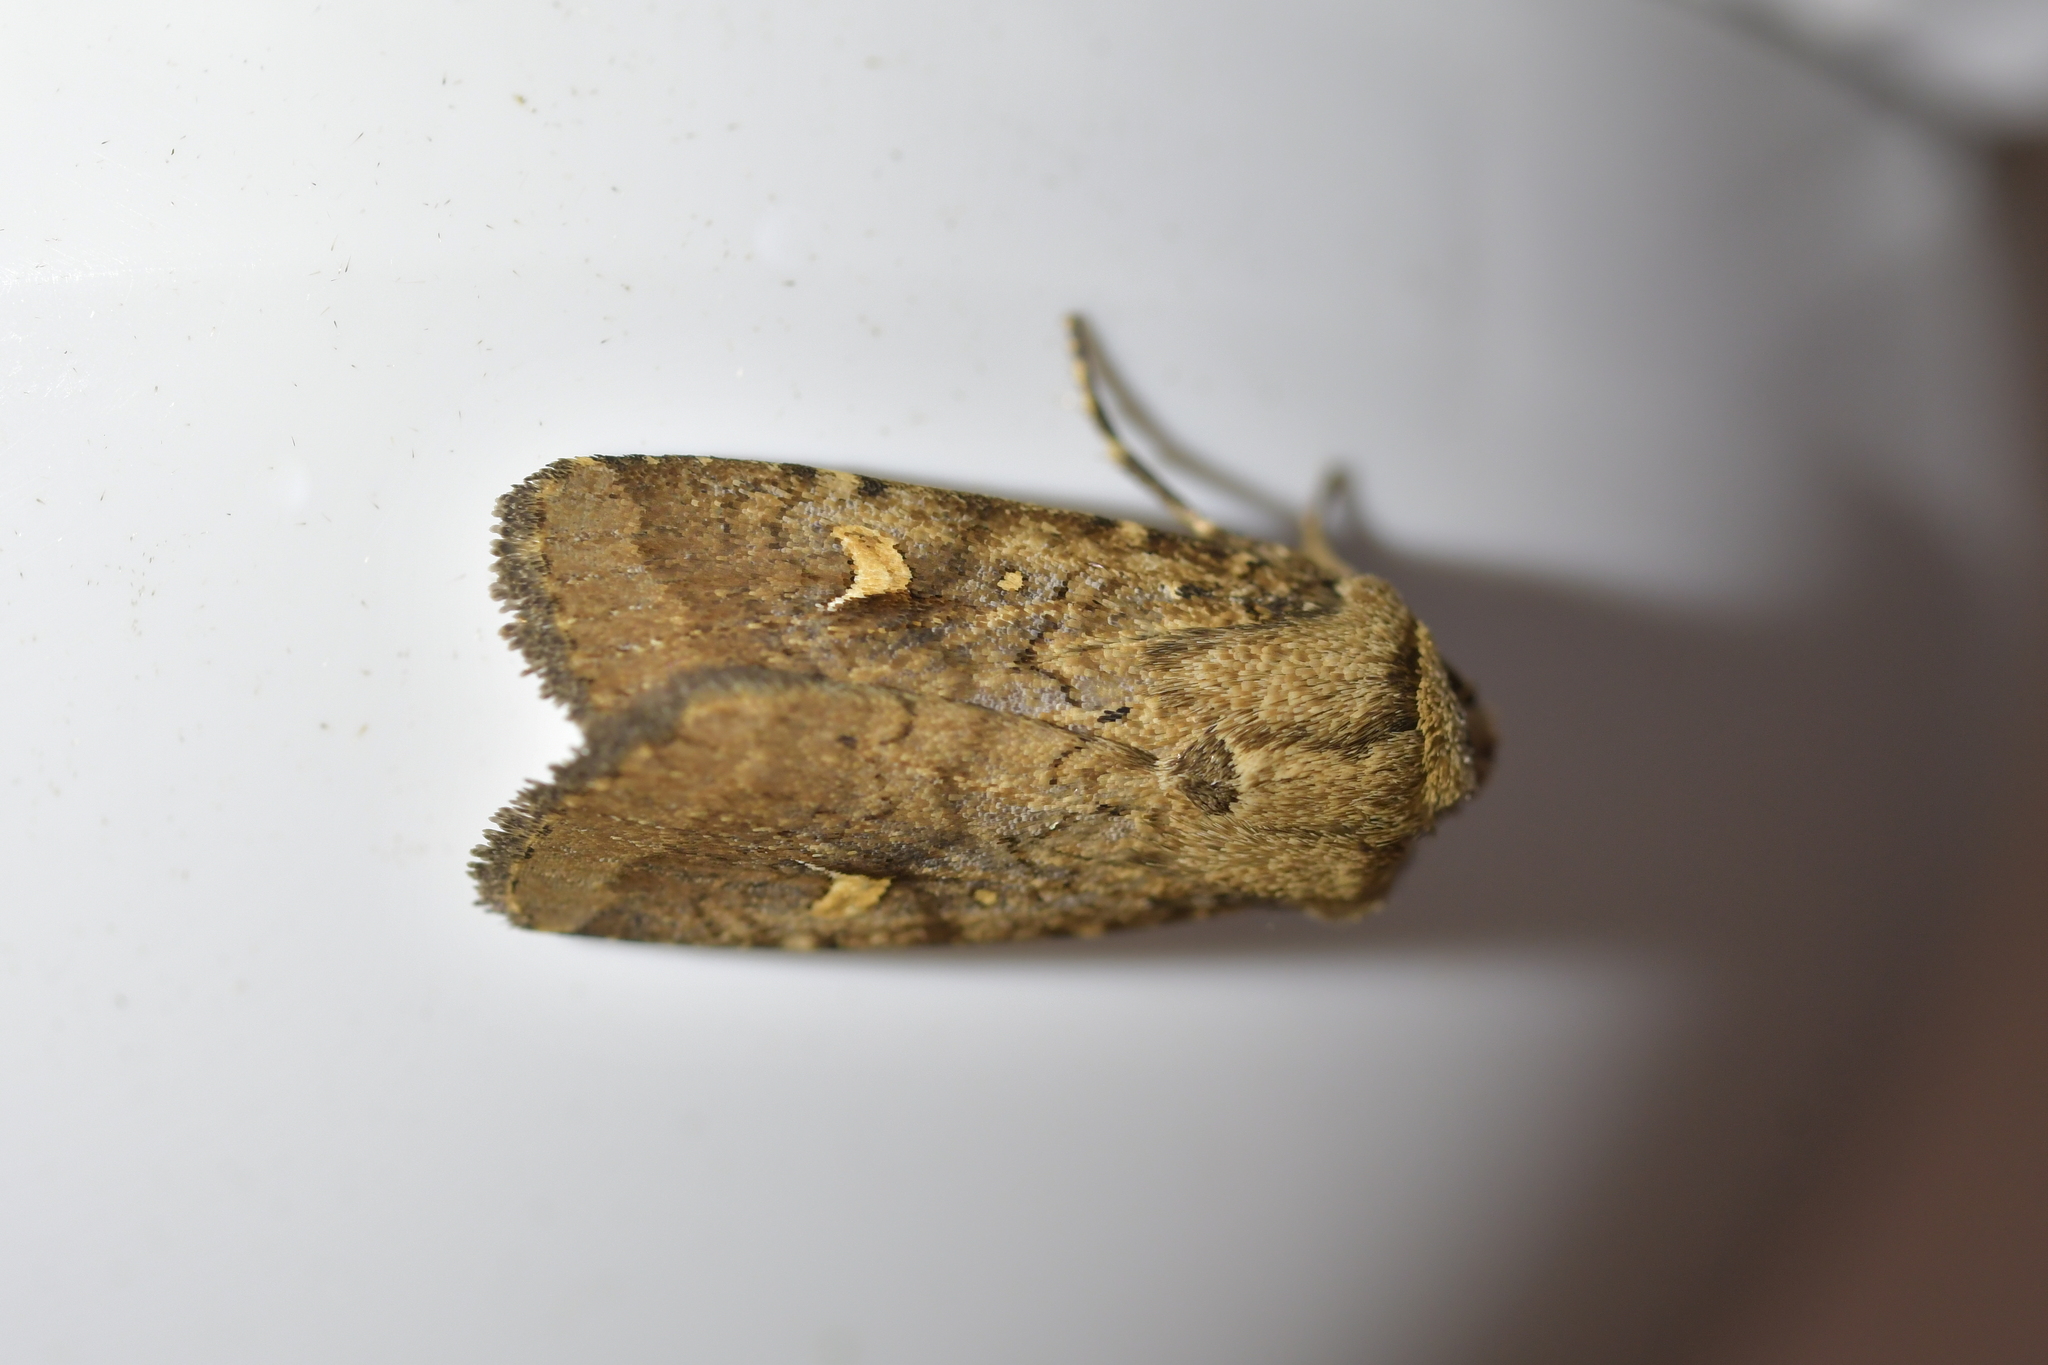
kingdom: Animalia
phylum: Arthropoda
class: Insecta
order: Lepidoptera
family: Noctuidae
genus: Proteuxoa
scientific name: Proteuxoa tetronycha
